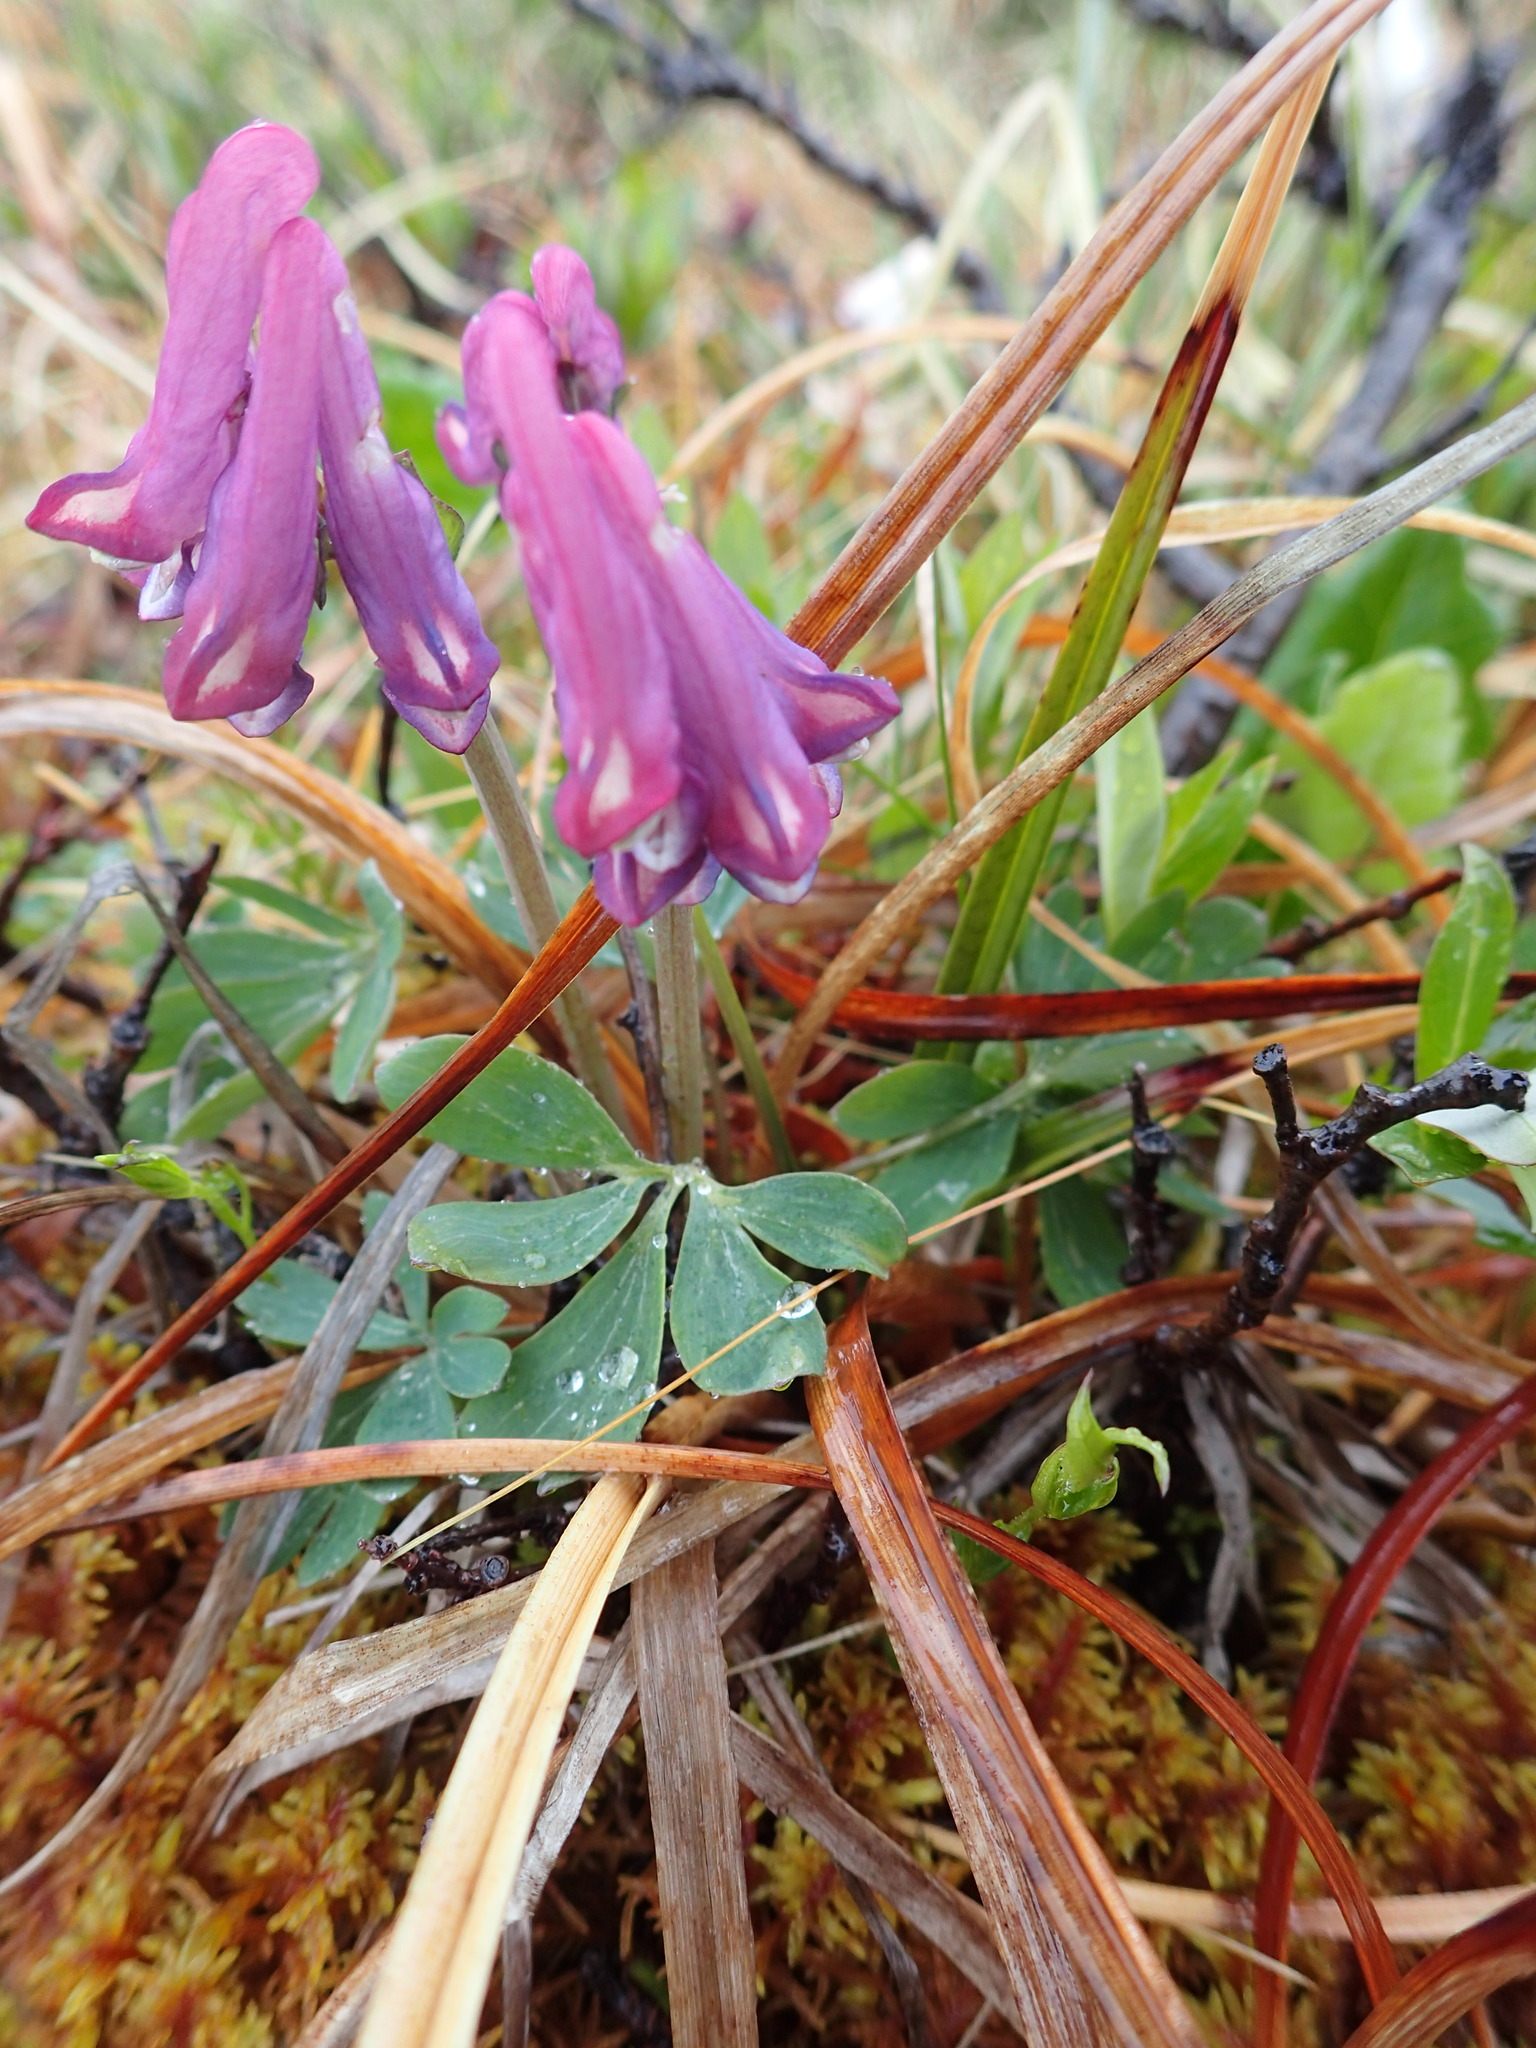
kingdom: Plantae
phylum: Tracheophyta
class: Magnoliopsida
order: Ranunculales
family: Papaveraceae
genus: Corydalis
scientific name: Corydalis pauciflora
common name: Blue corydalis
